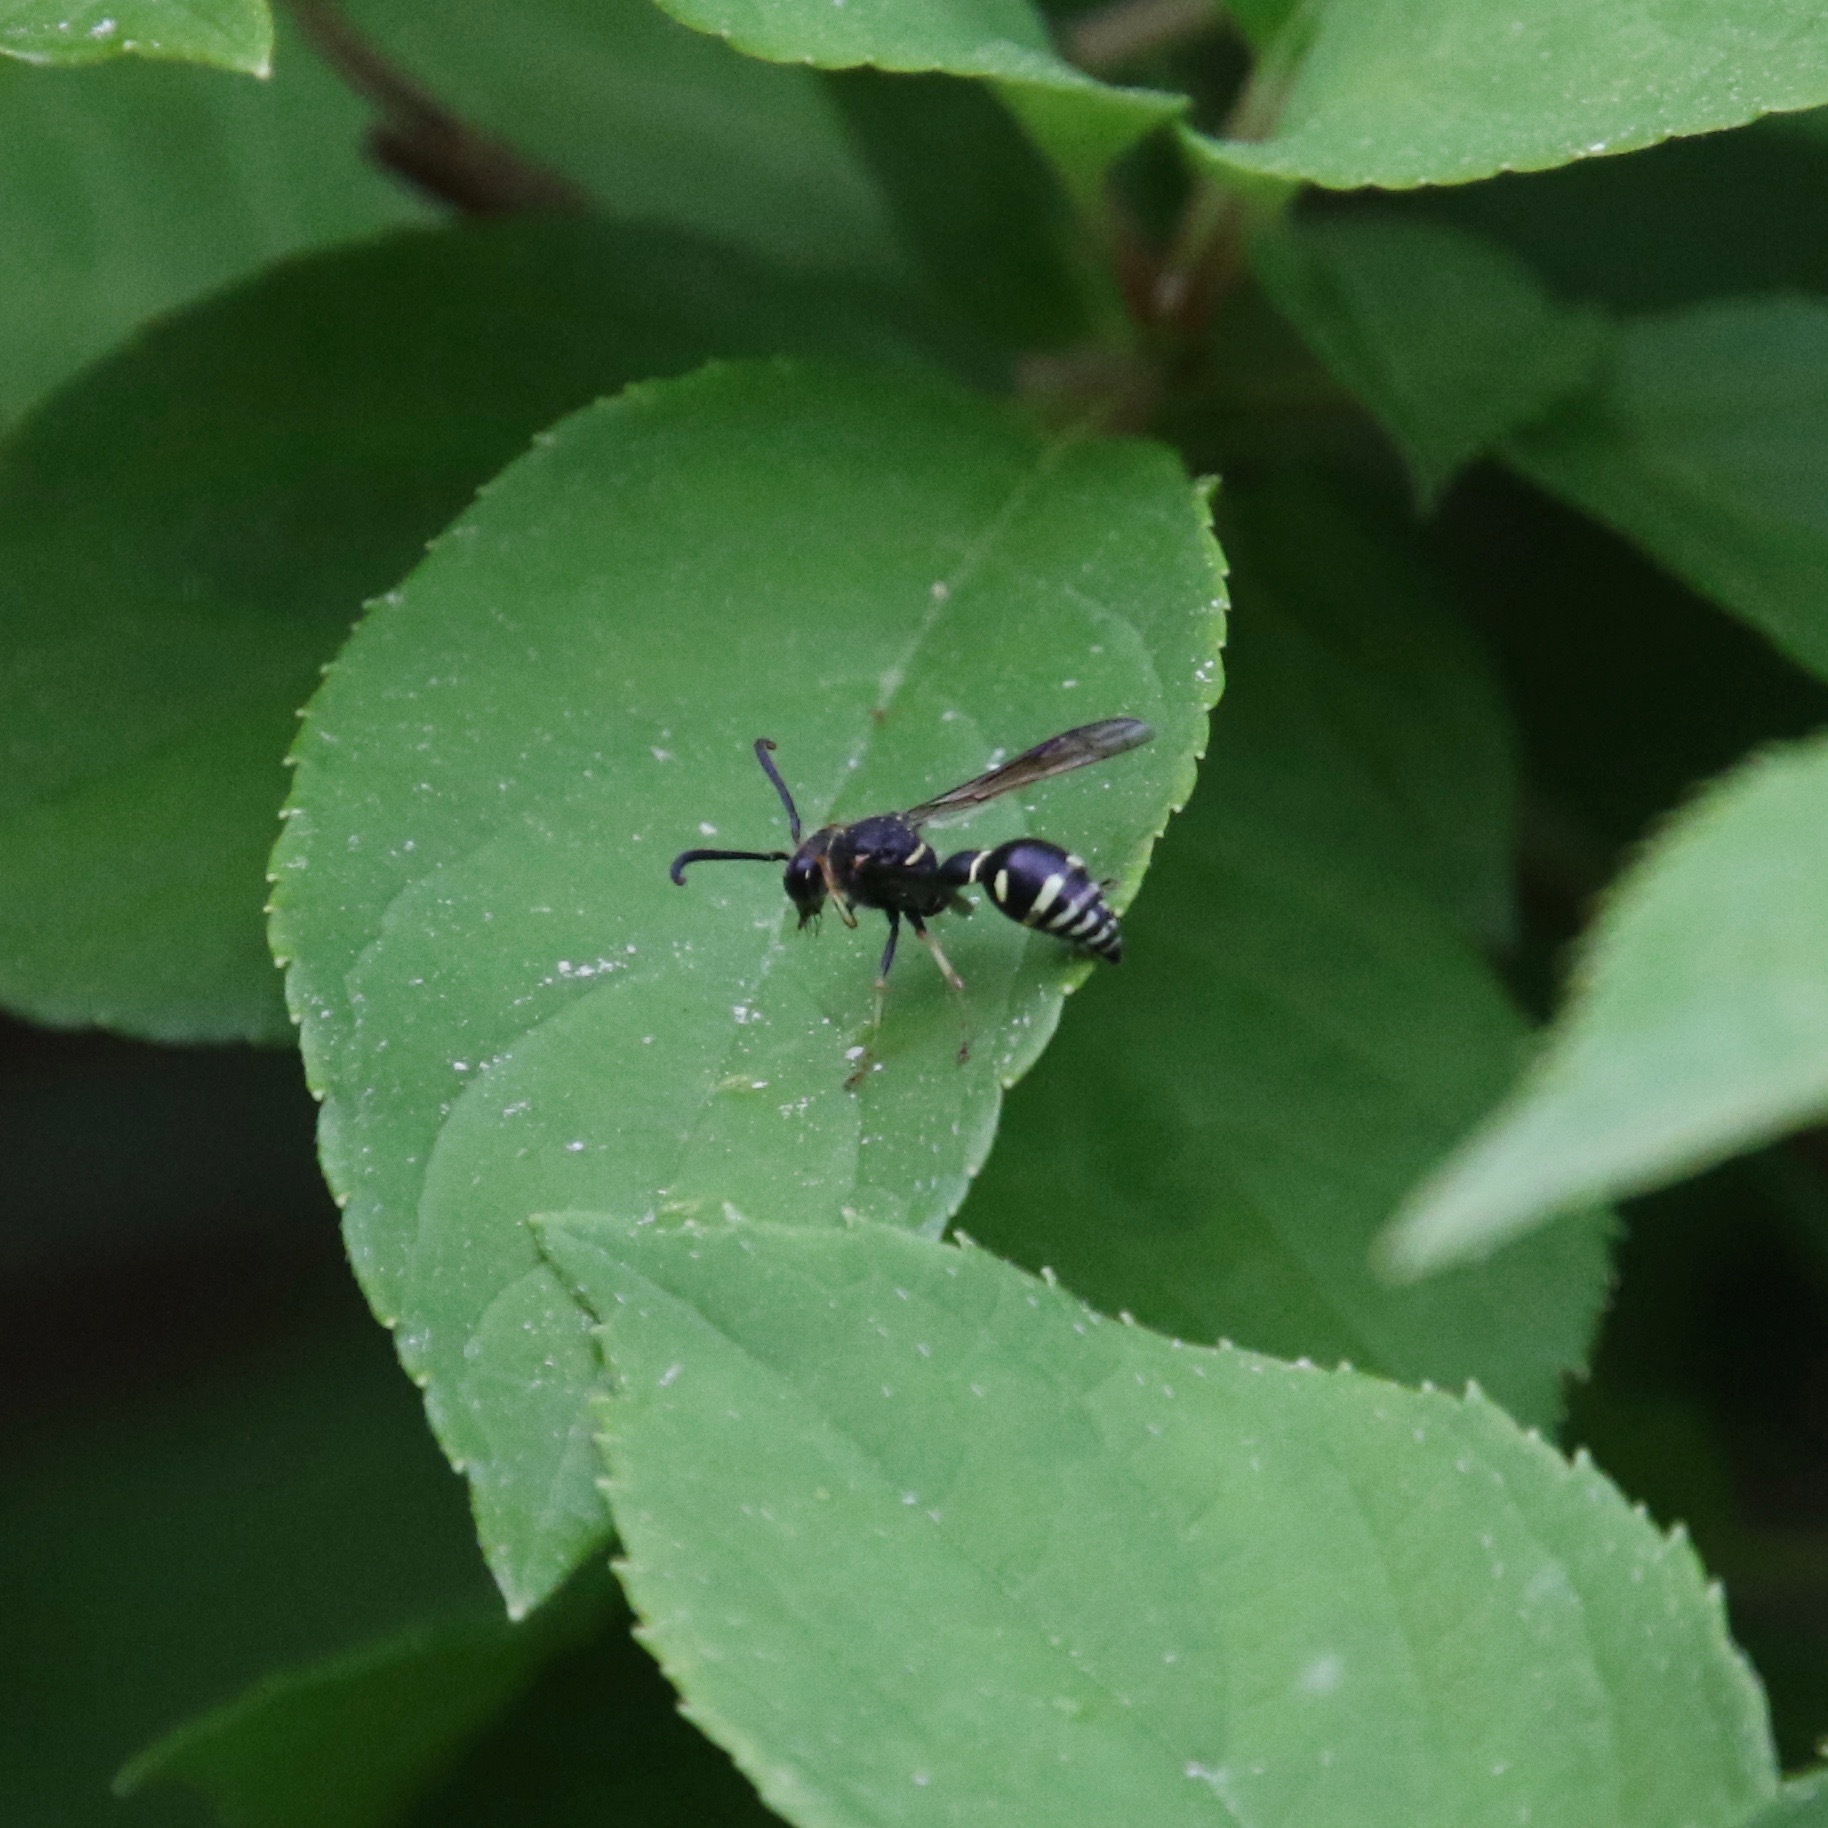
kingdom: Animalia
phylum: Arthropoda
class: Insecta
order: Hymenoptera
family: Vespidae
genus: Eumenes
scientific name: Eumenes crucifera
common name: Cross potter wasp
